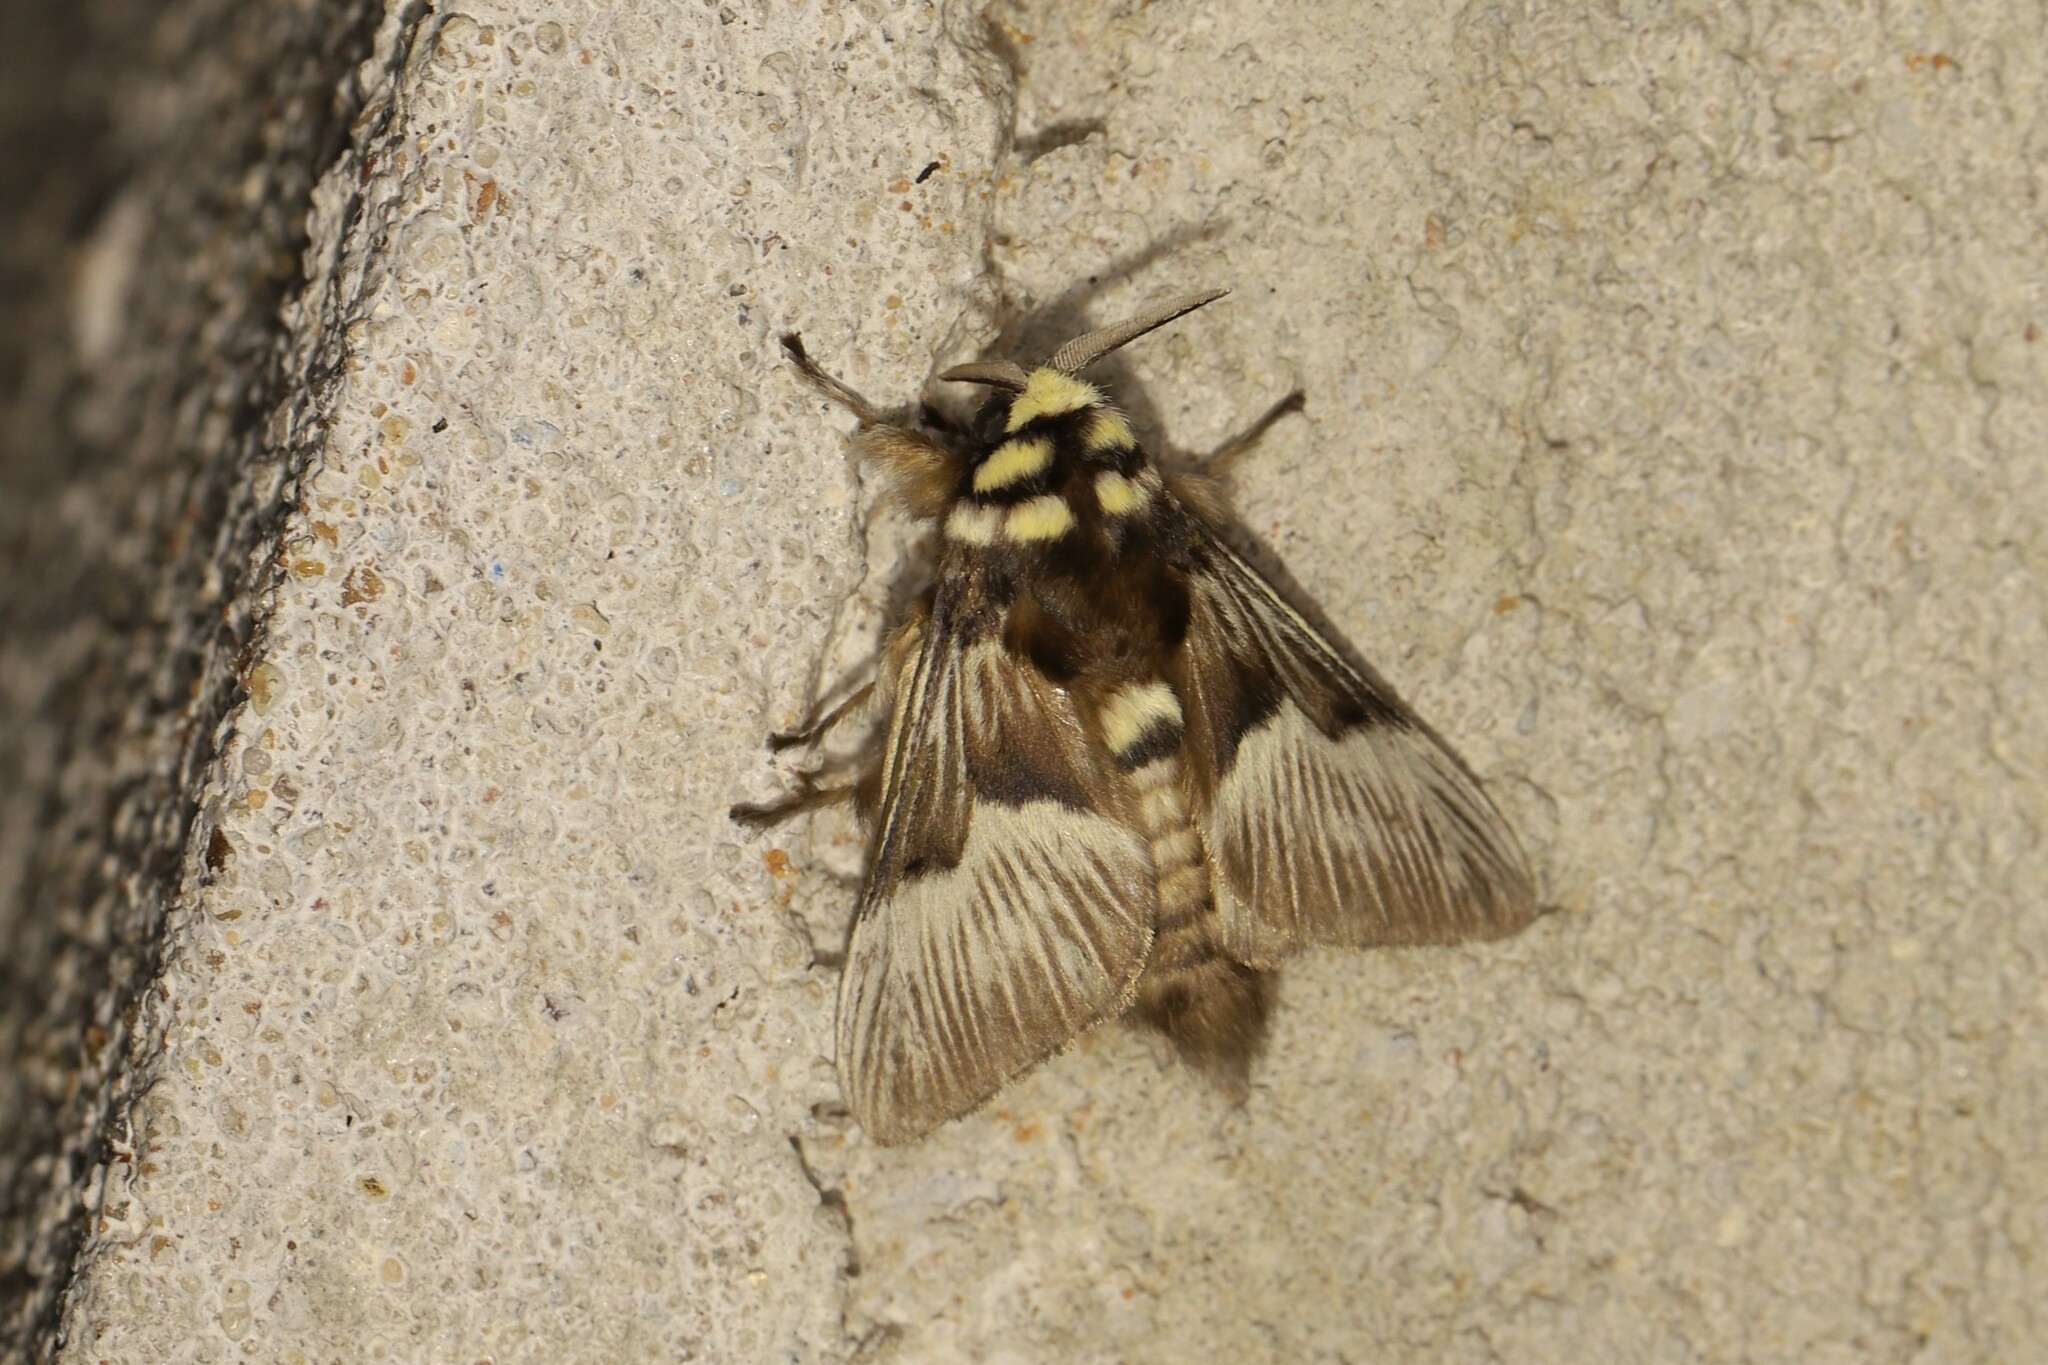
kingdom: Animalia
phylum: Arthropoda
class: Insecta
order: Lepidoptera
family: Megalopygidae
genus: Megalopyge
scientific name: Megalopyge tharops
